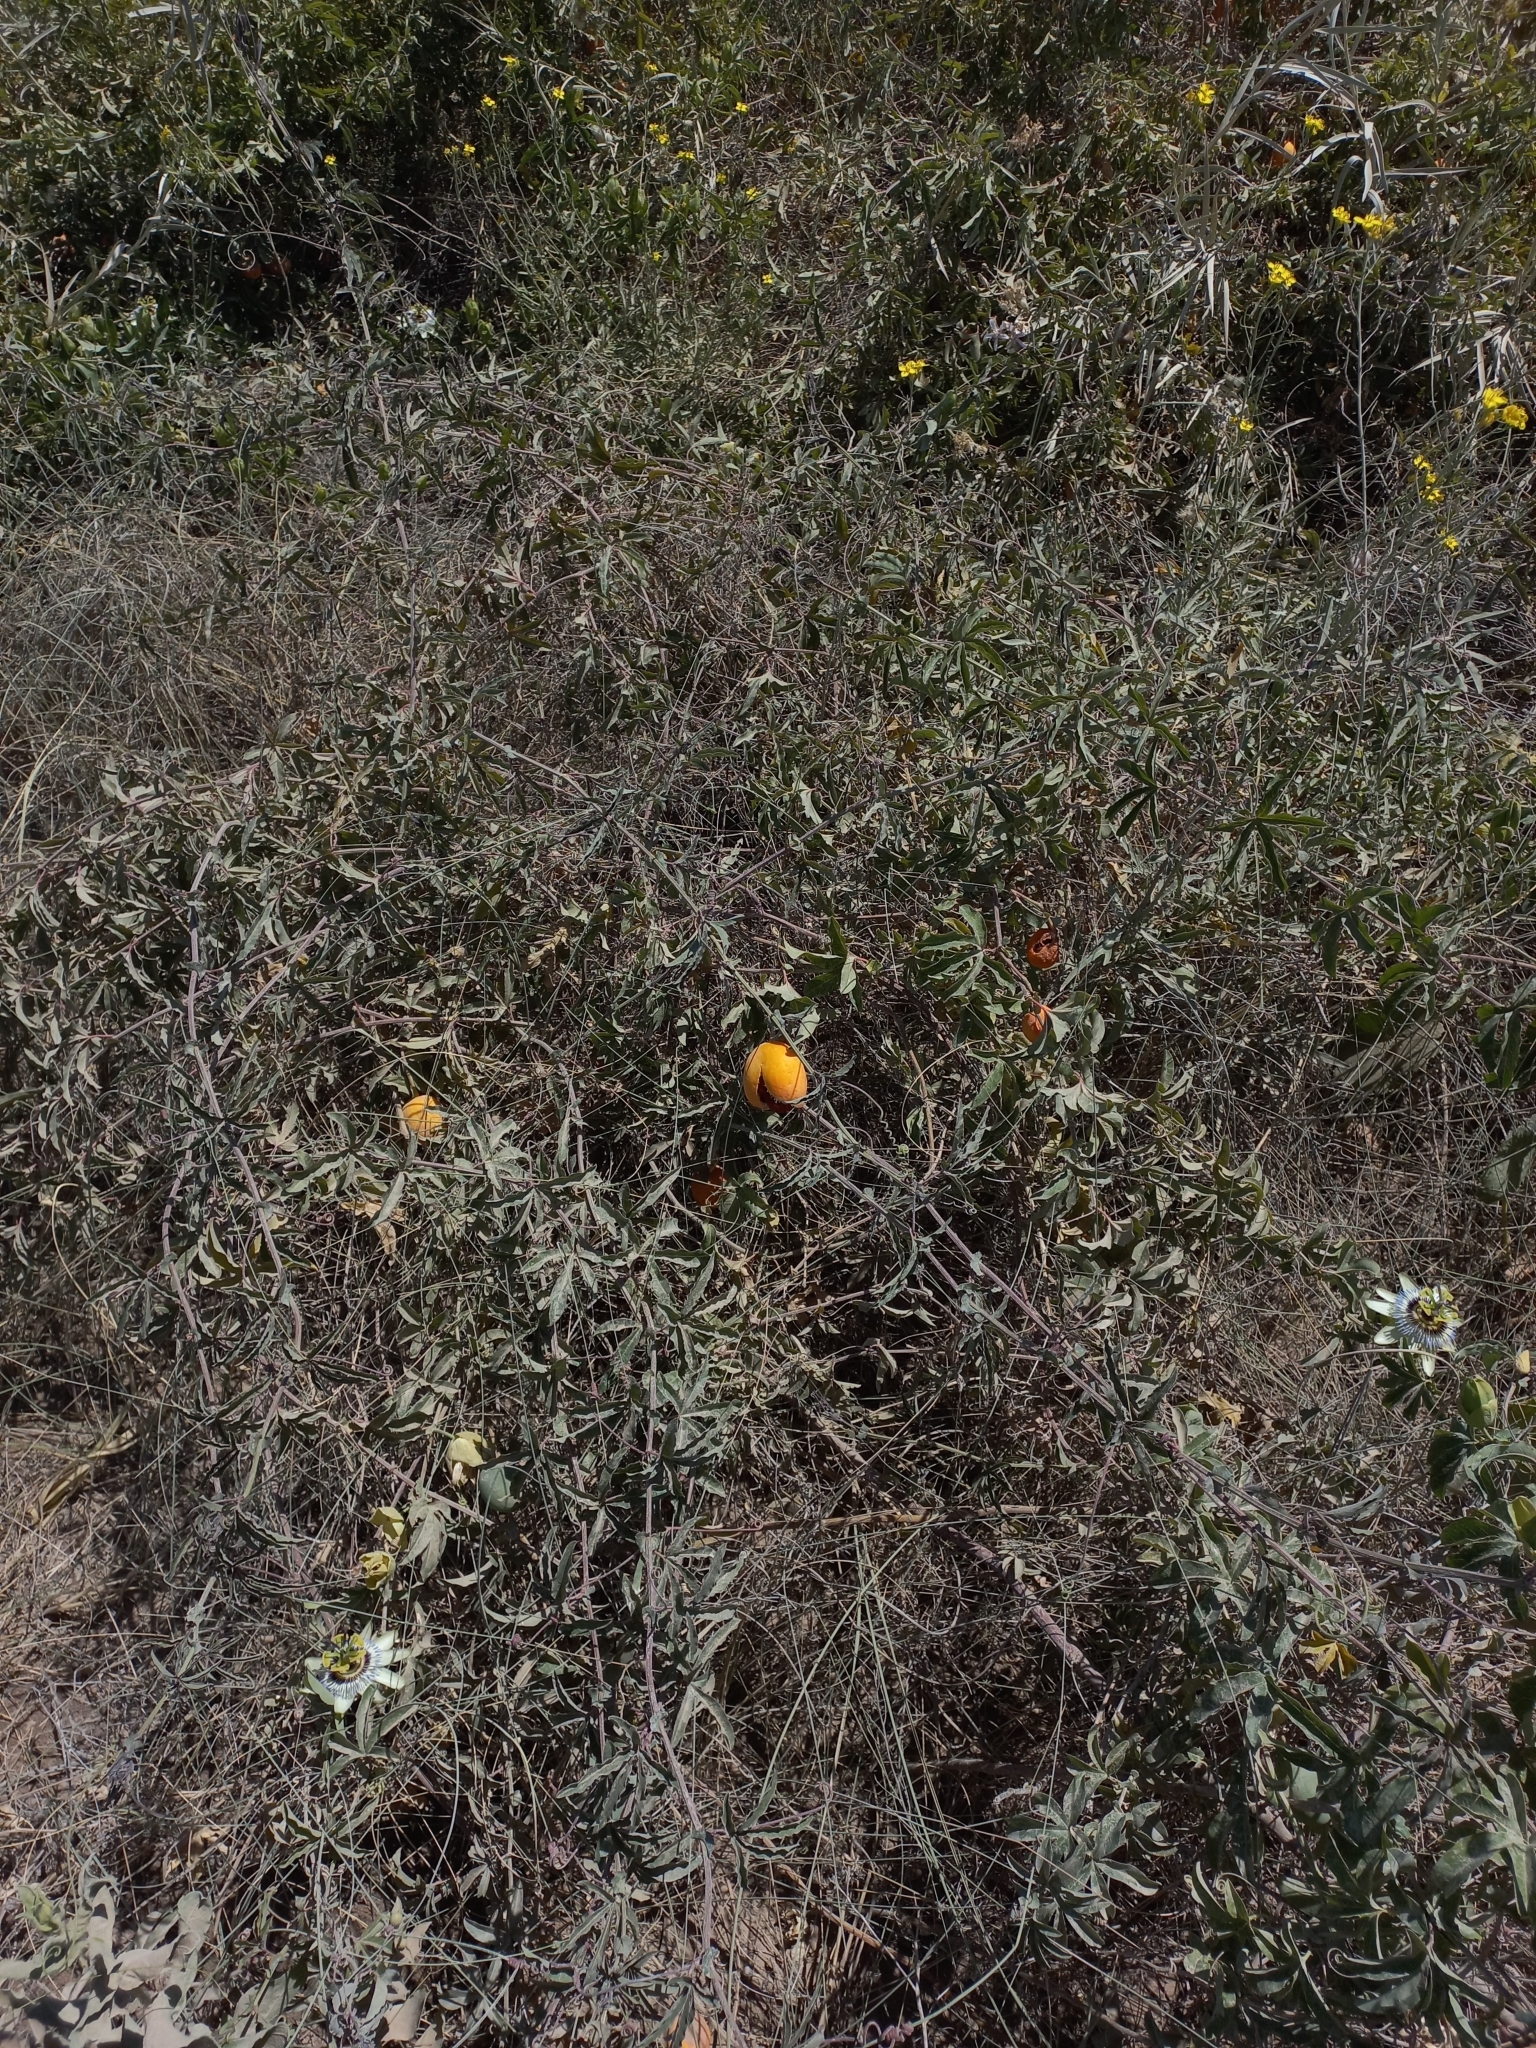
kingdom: Plantae
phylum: Tracheophyta
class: Magnoliopsida
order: Malpighiales
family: Passifloraceae
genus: Passiflora
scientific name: Passiflora caerulea
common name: Blue passionflower
